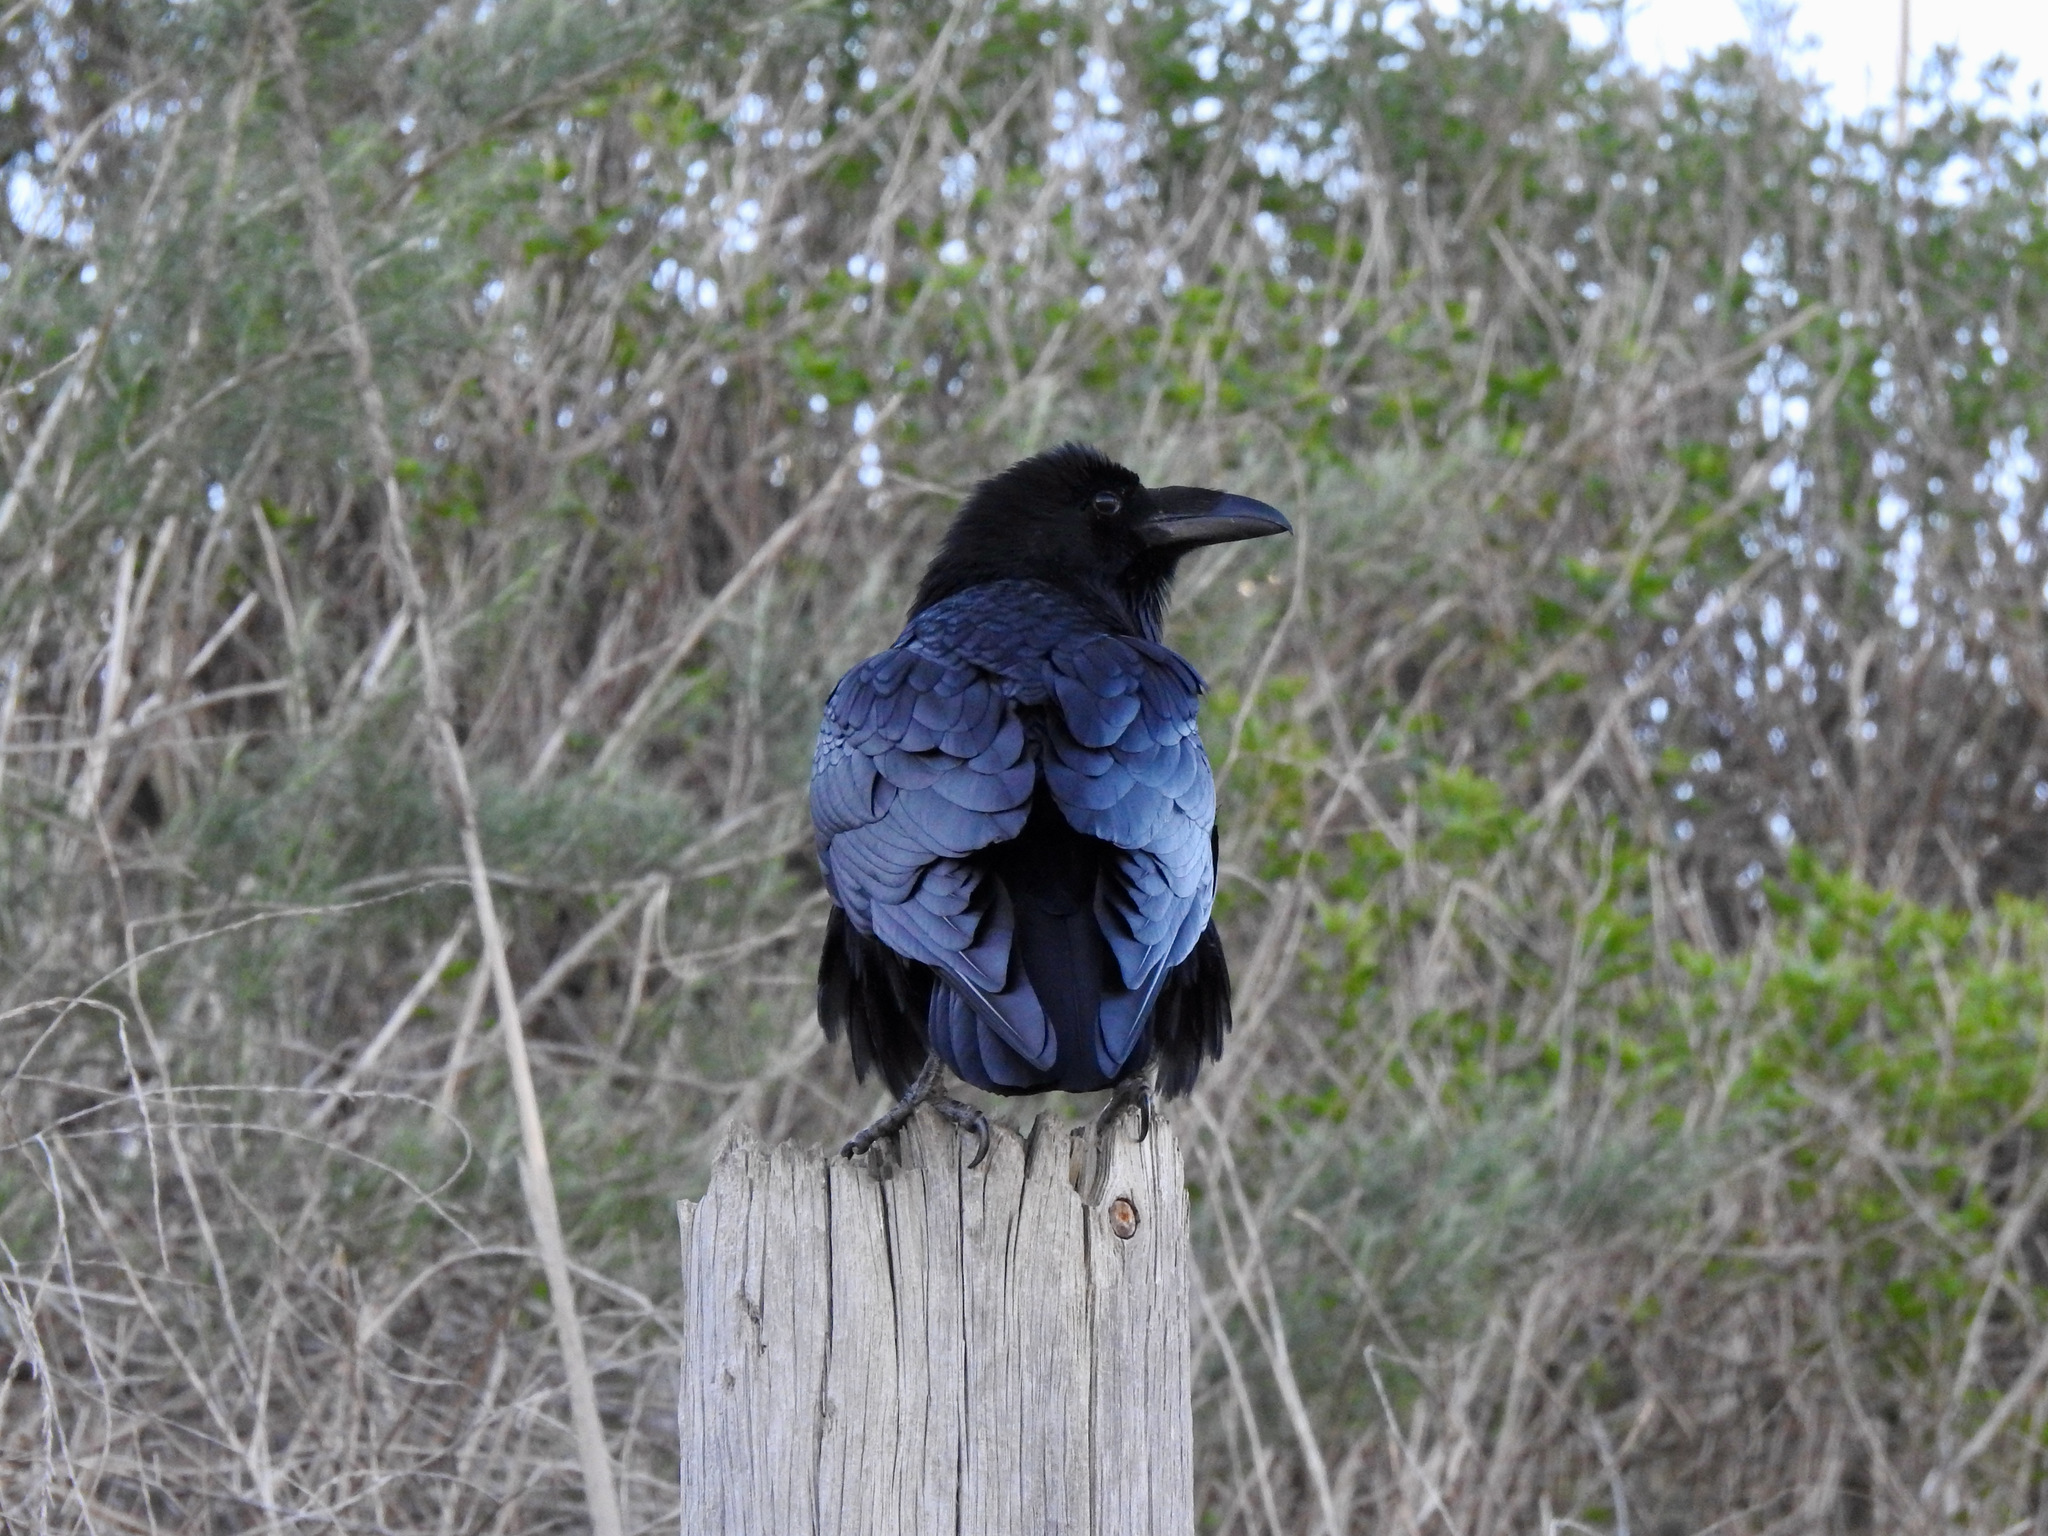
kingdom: Animalia
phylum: Chordata
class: Aves
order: Passeriformes
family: Corvidae
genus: Corvus
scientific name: Corvus corax
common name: Common raven
